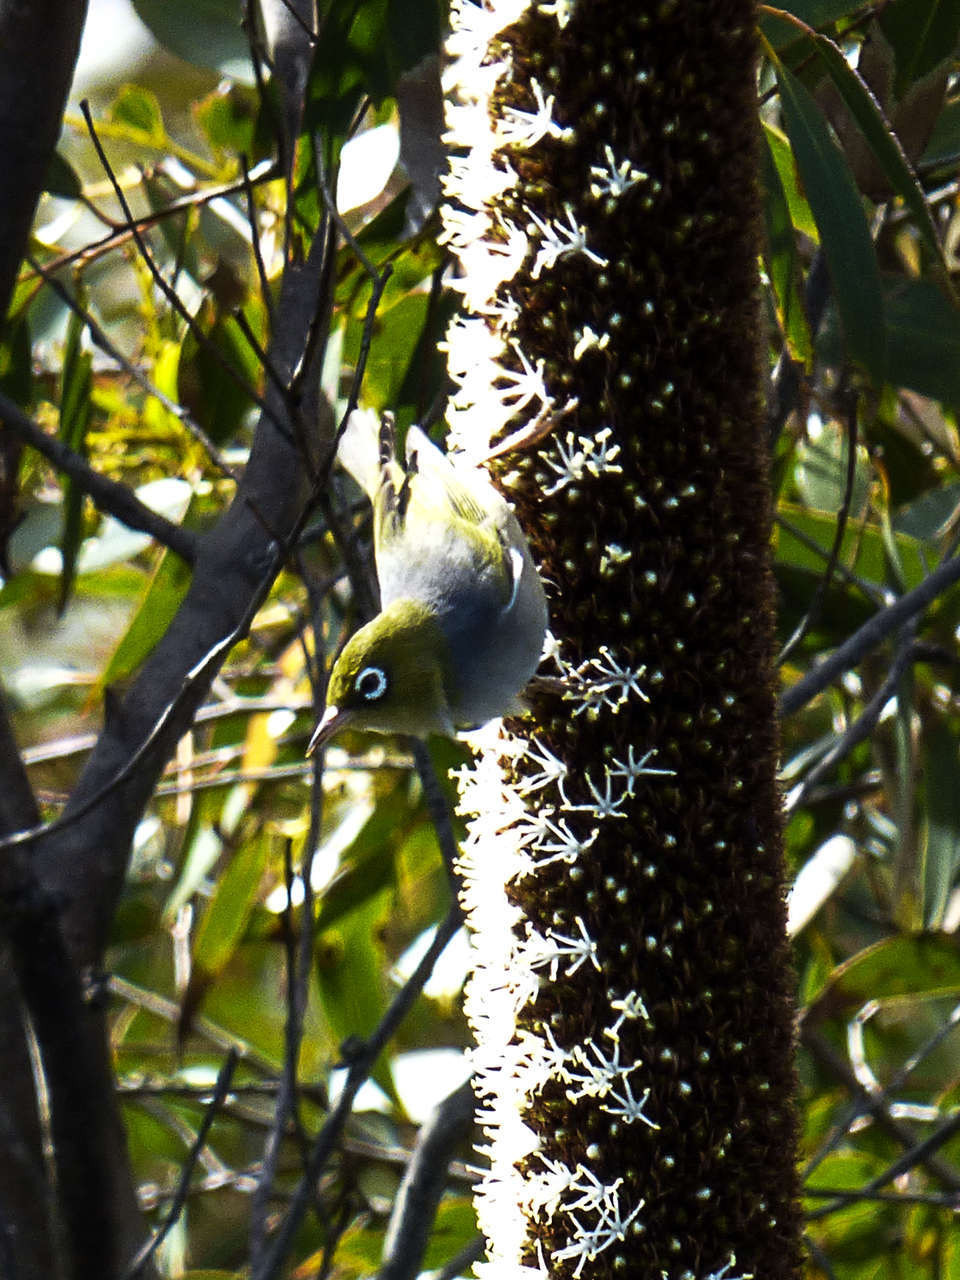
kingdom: Animalia
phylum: Chordata
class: Aves
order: Passeriformes
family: Zosteropidae
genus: Zosterops
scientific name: Zosterops lateralis
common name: Silvereye
